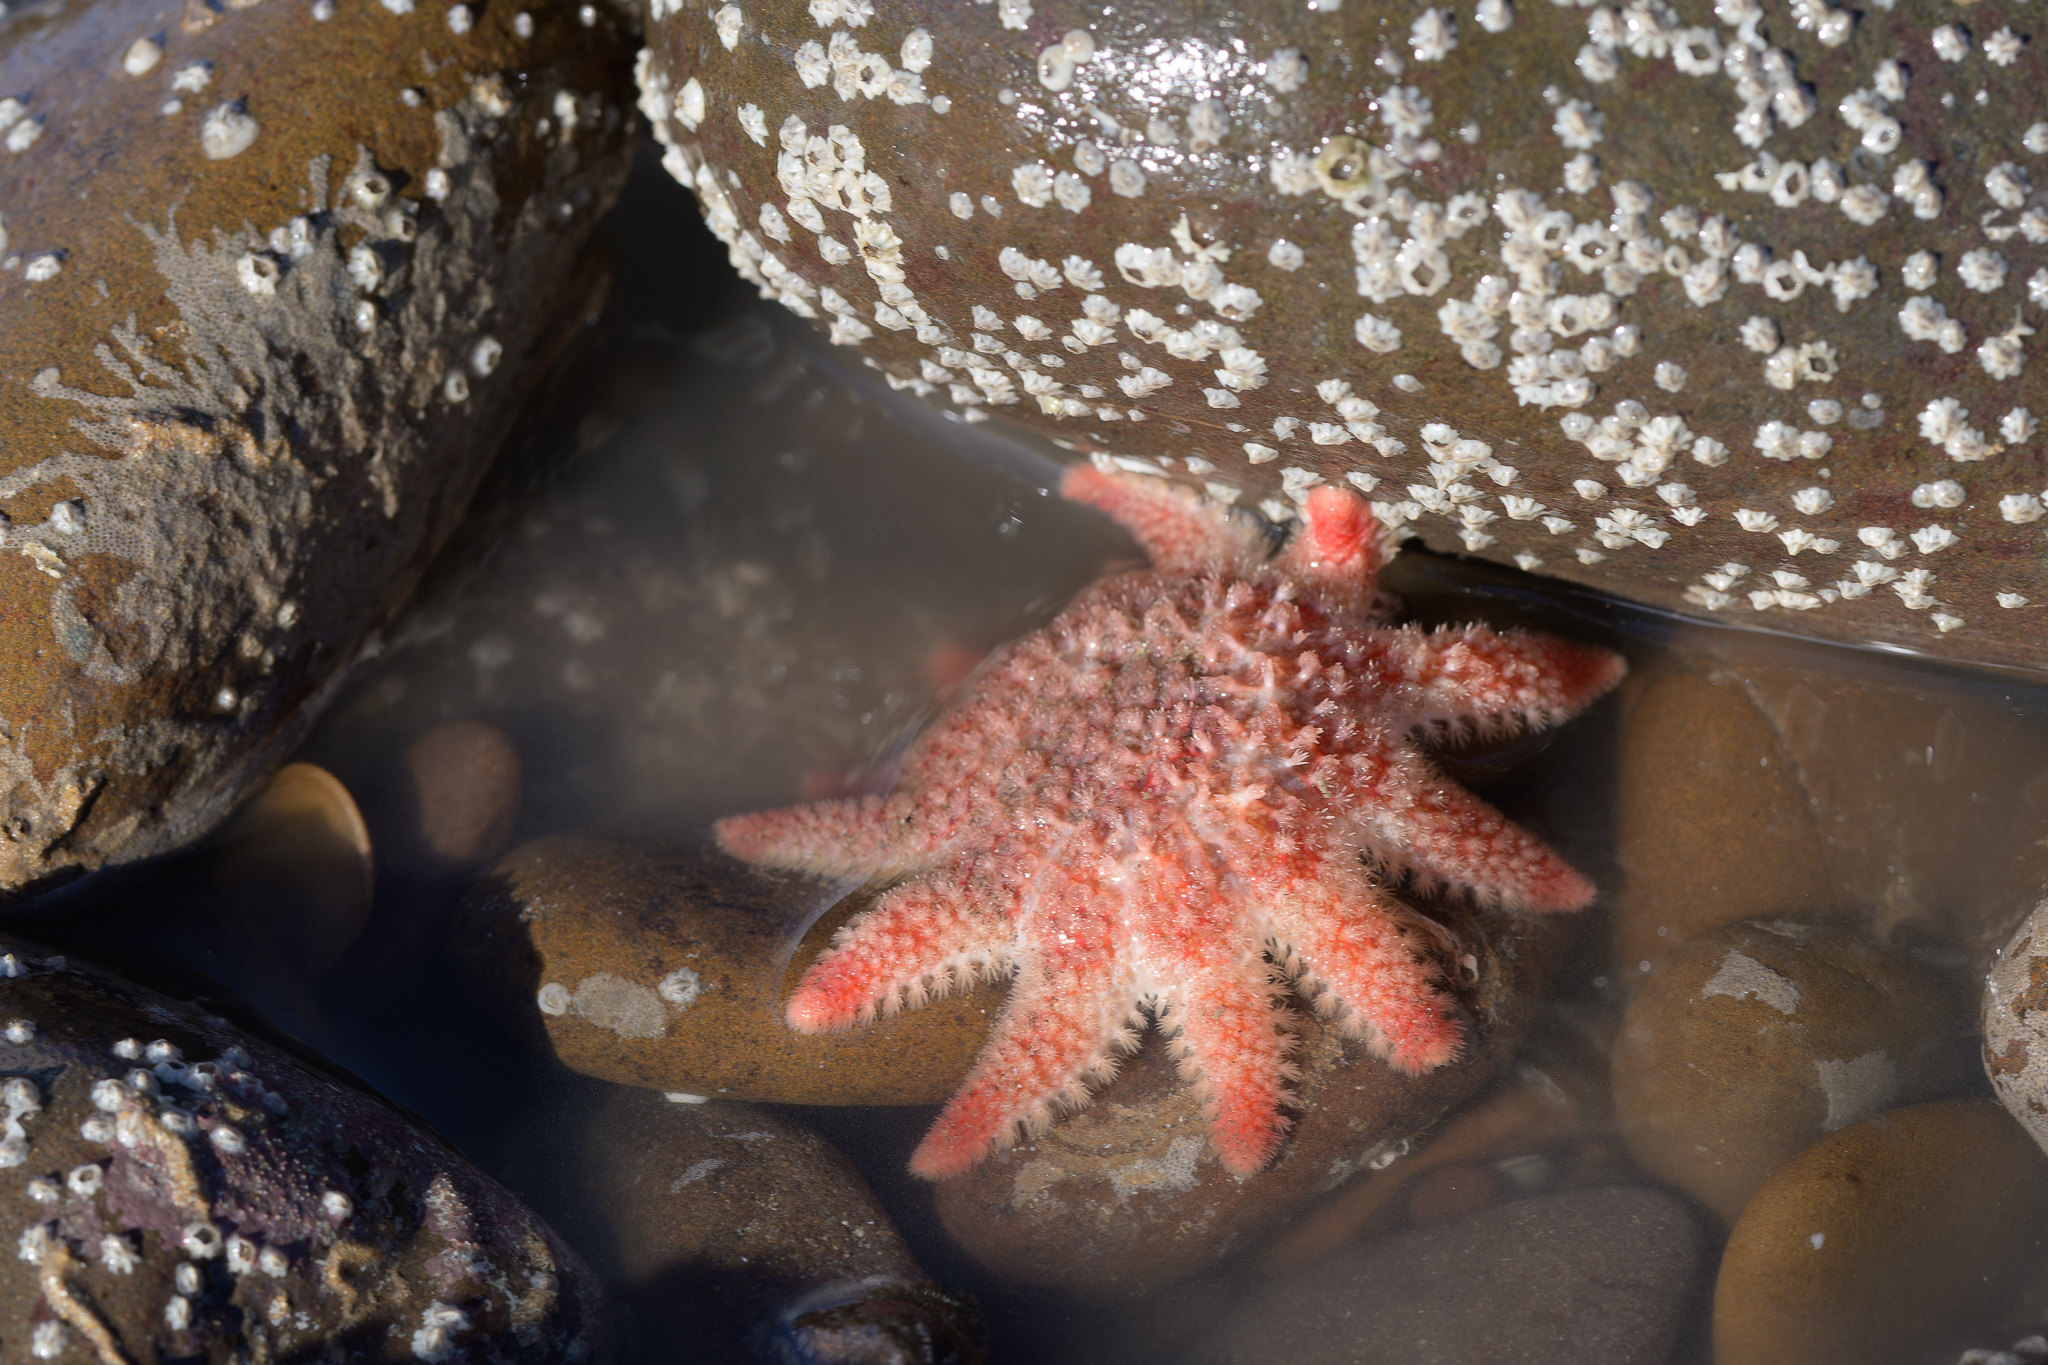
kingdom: Animalia
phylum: Echinodermata
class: Asteroidea
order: Valvatida
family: Solasteridae
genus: Crossaster
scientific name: Crossaster papposus
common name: Common sun star
